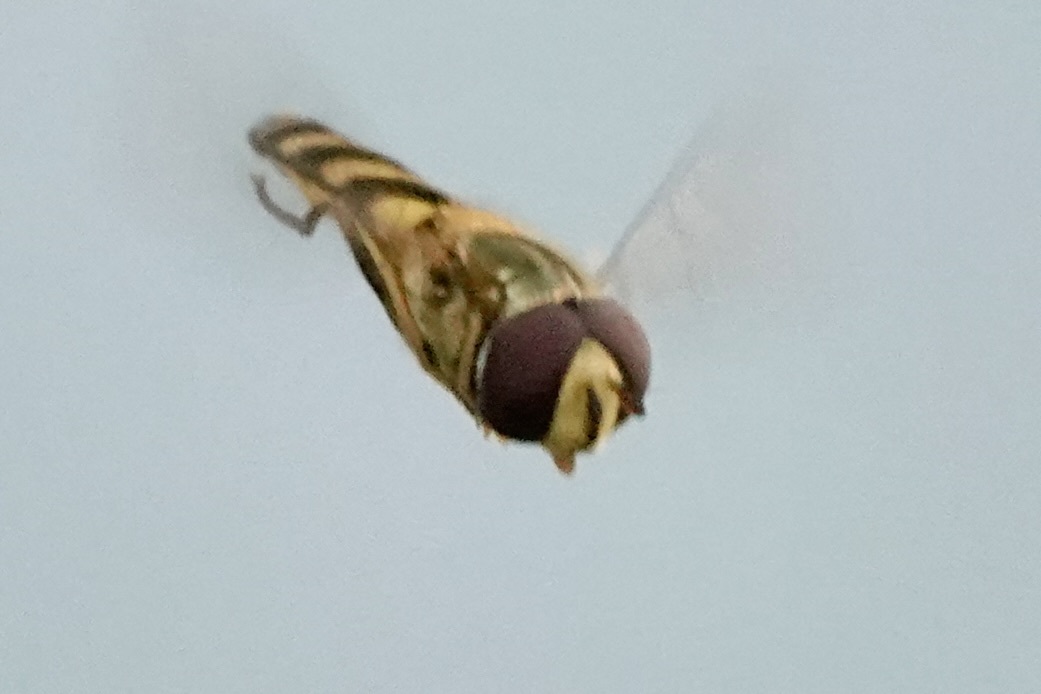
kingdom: Animalia
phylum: Arthropoda
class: Insecta
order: Diptera
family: Syrphidae
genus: Eupeodes
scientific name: Eupeodes
